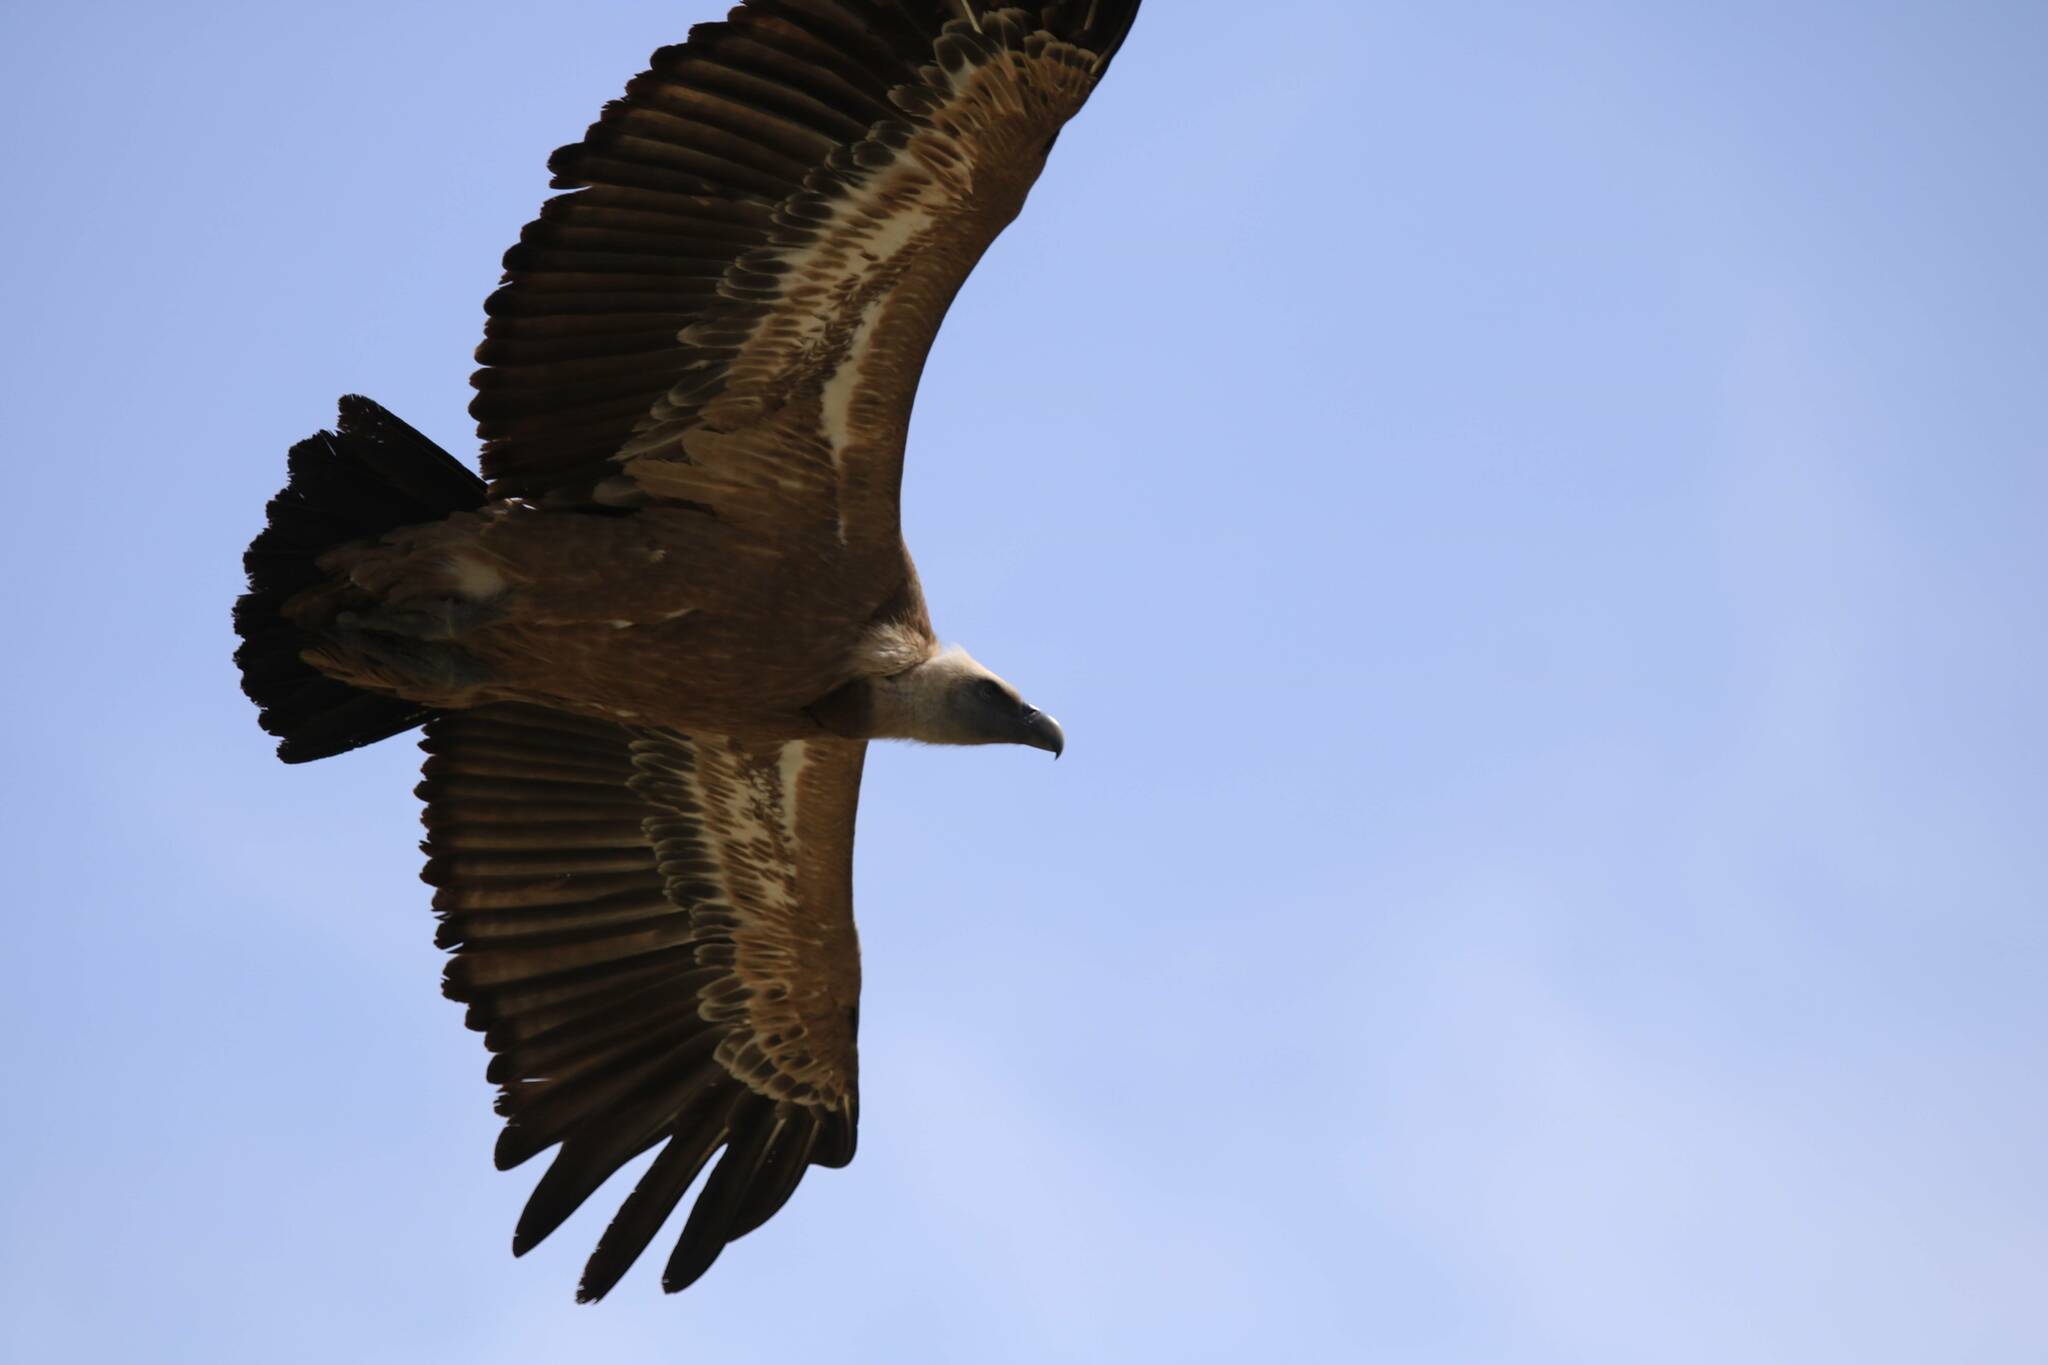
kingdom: Animalia
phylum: Chordata
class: Aves
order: Accipitriformes
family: Accipitridae
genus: Gyps
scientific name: Gyps fulvus
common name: Griffon vulture
